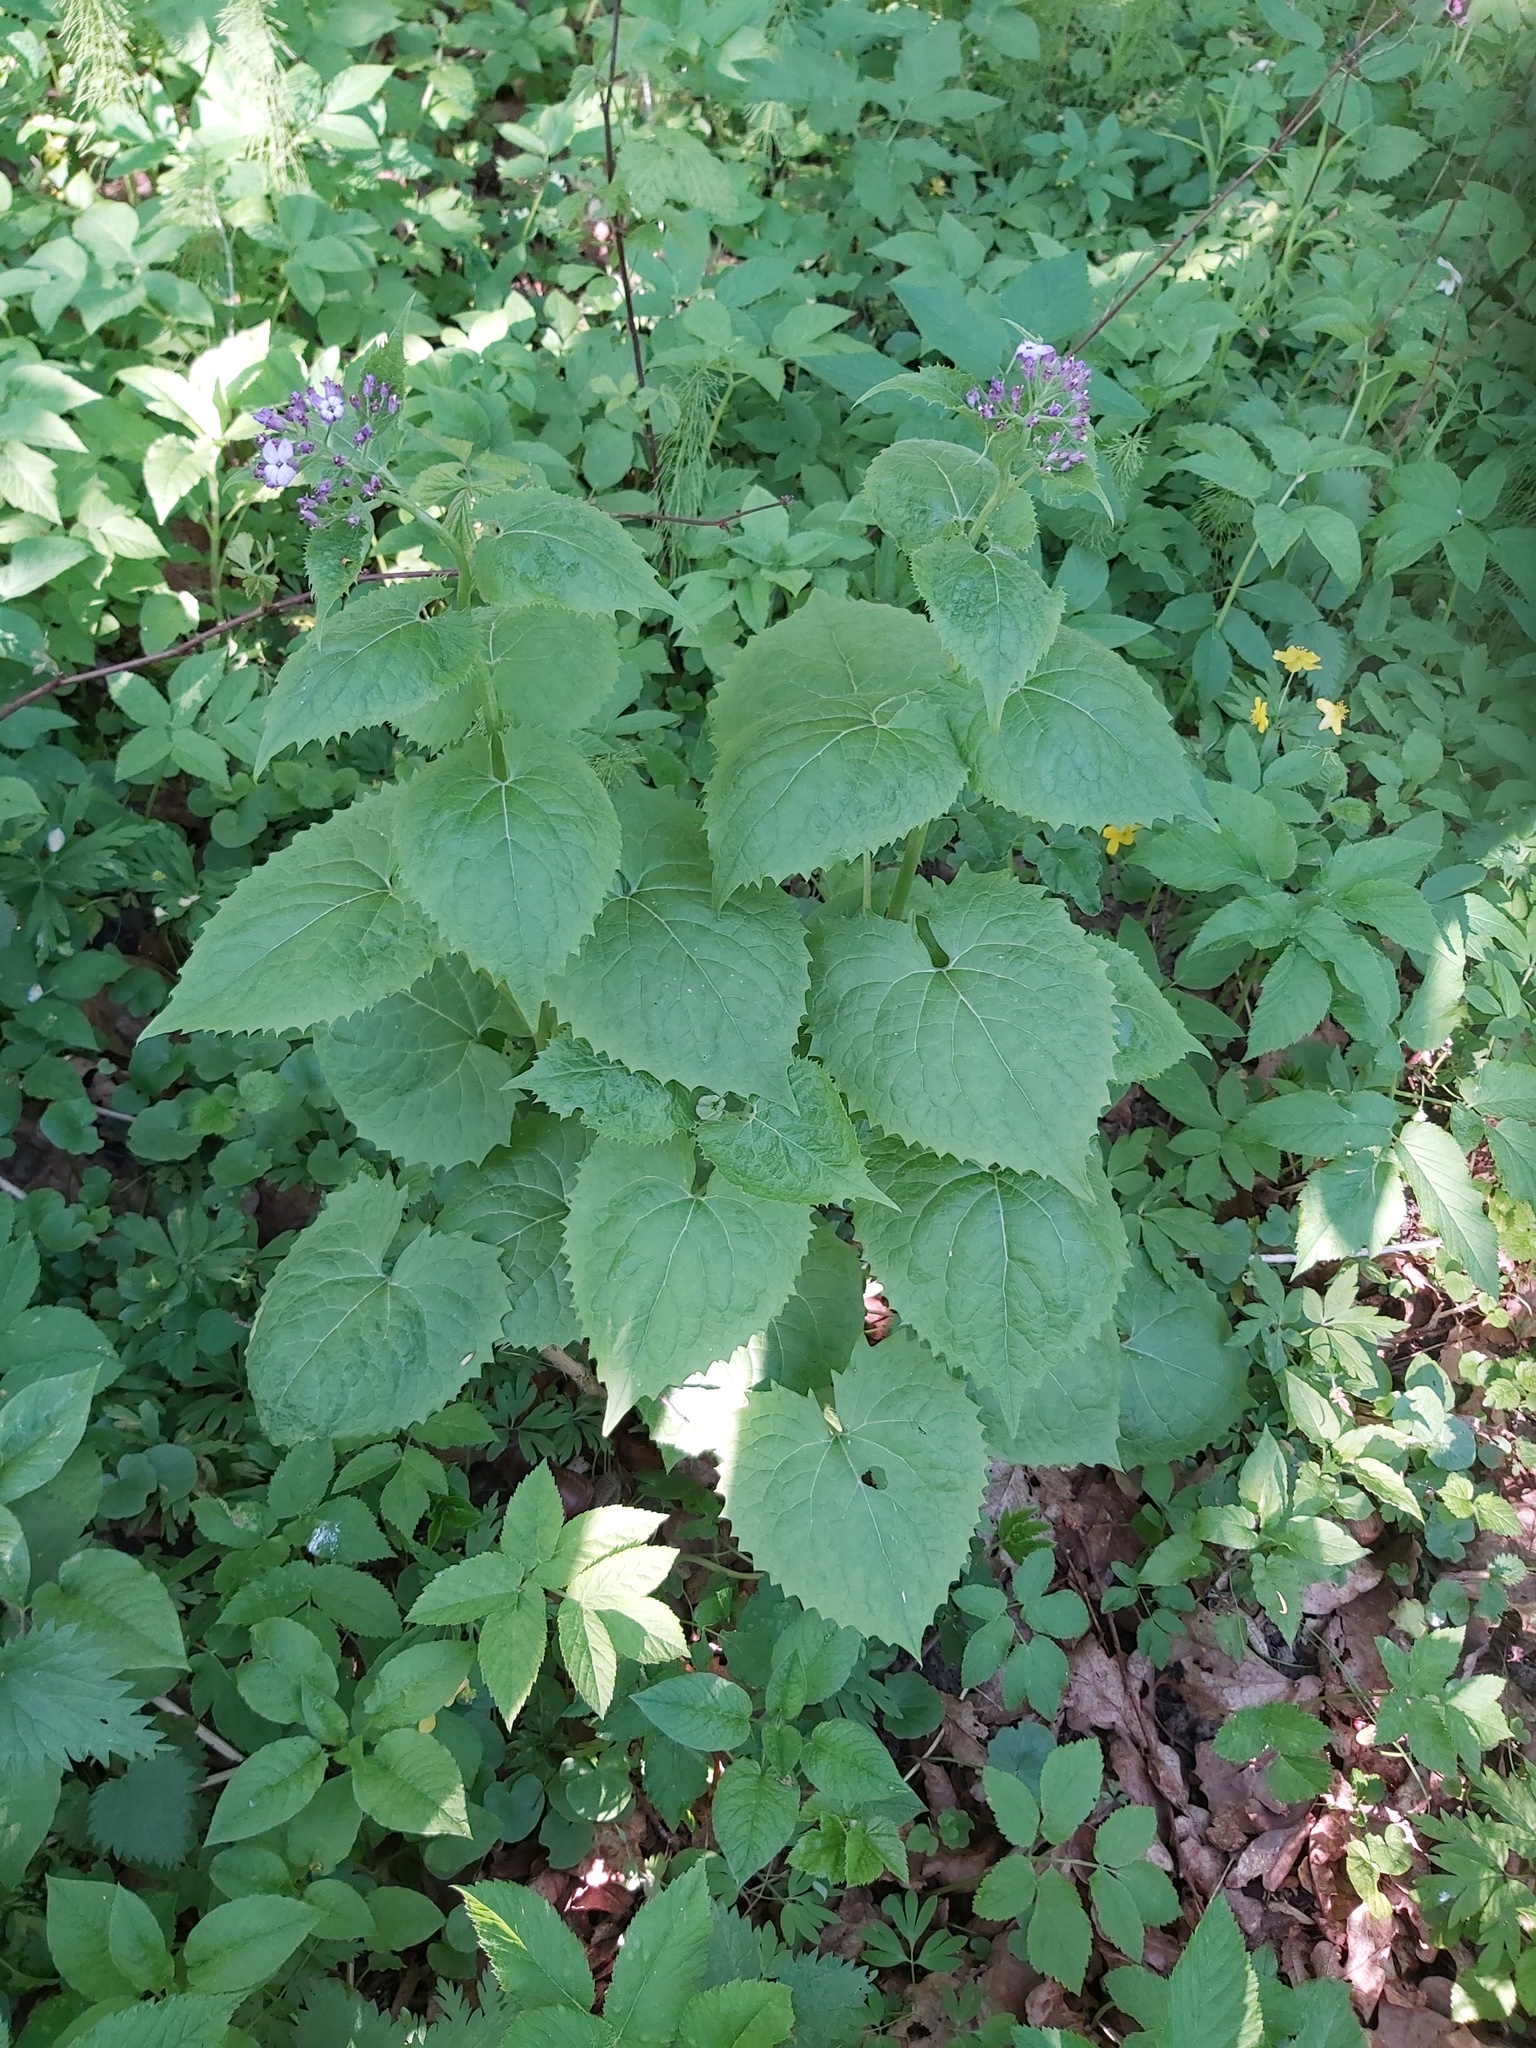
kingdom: Plantae
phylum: Tracheophyta
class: Magnoliopsida
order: Brassicales
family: Brassicaceae
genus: Lunaria
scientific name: Lunaria rediviva
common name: Perennial honesty
